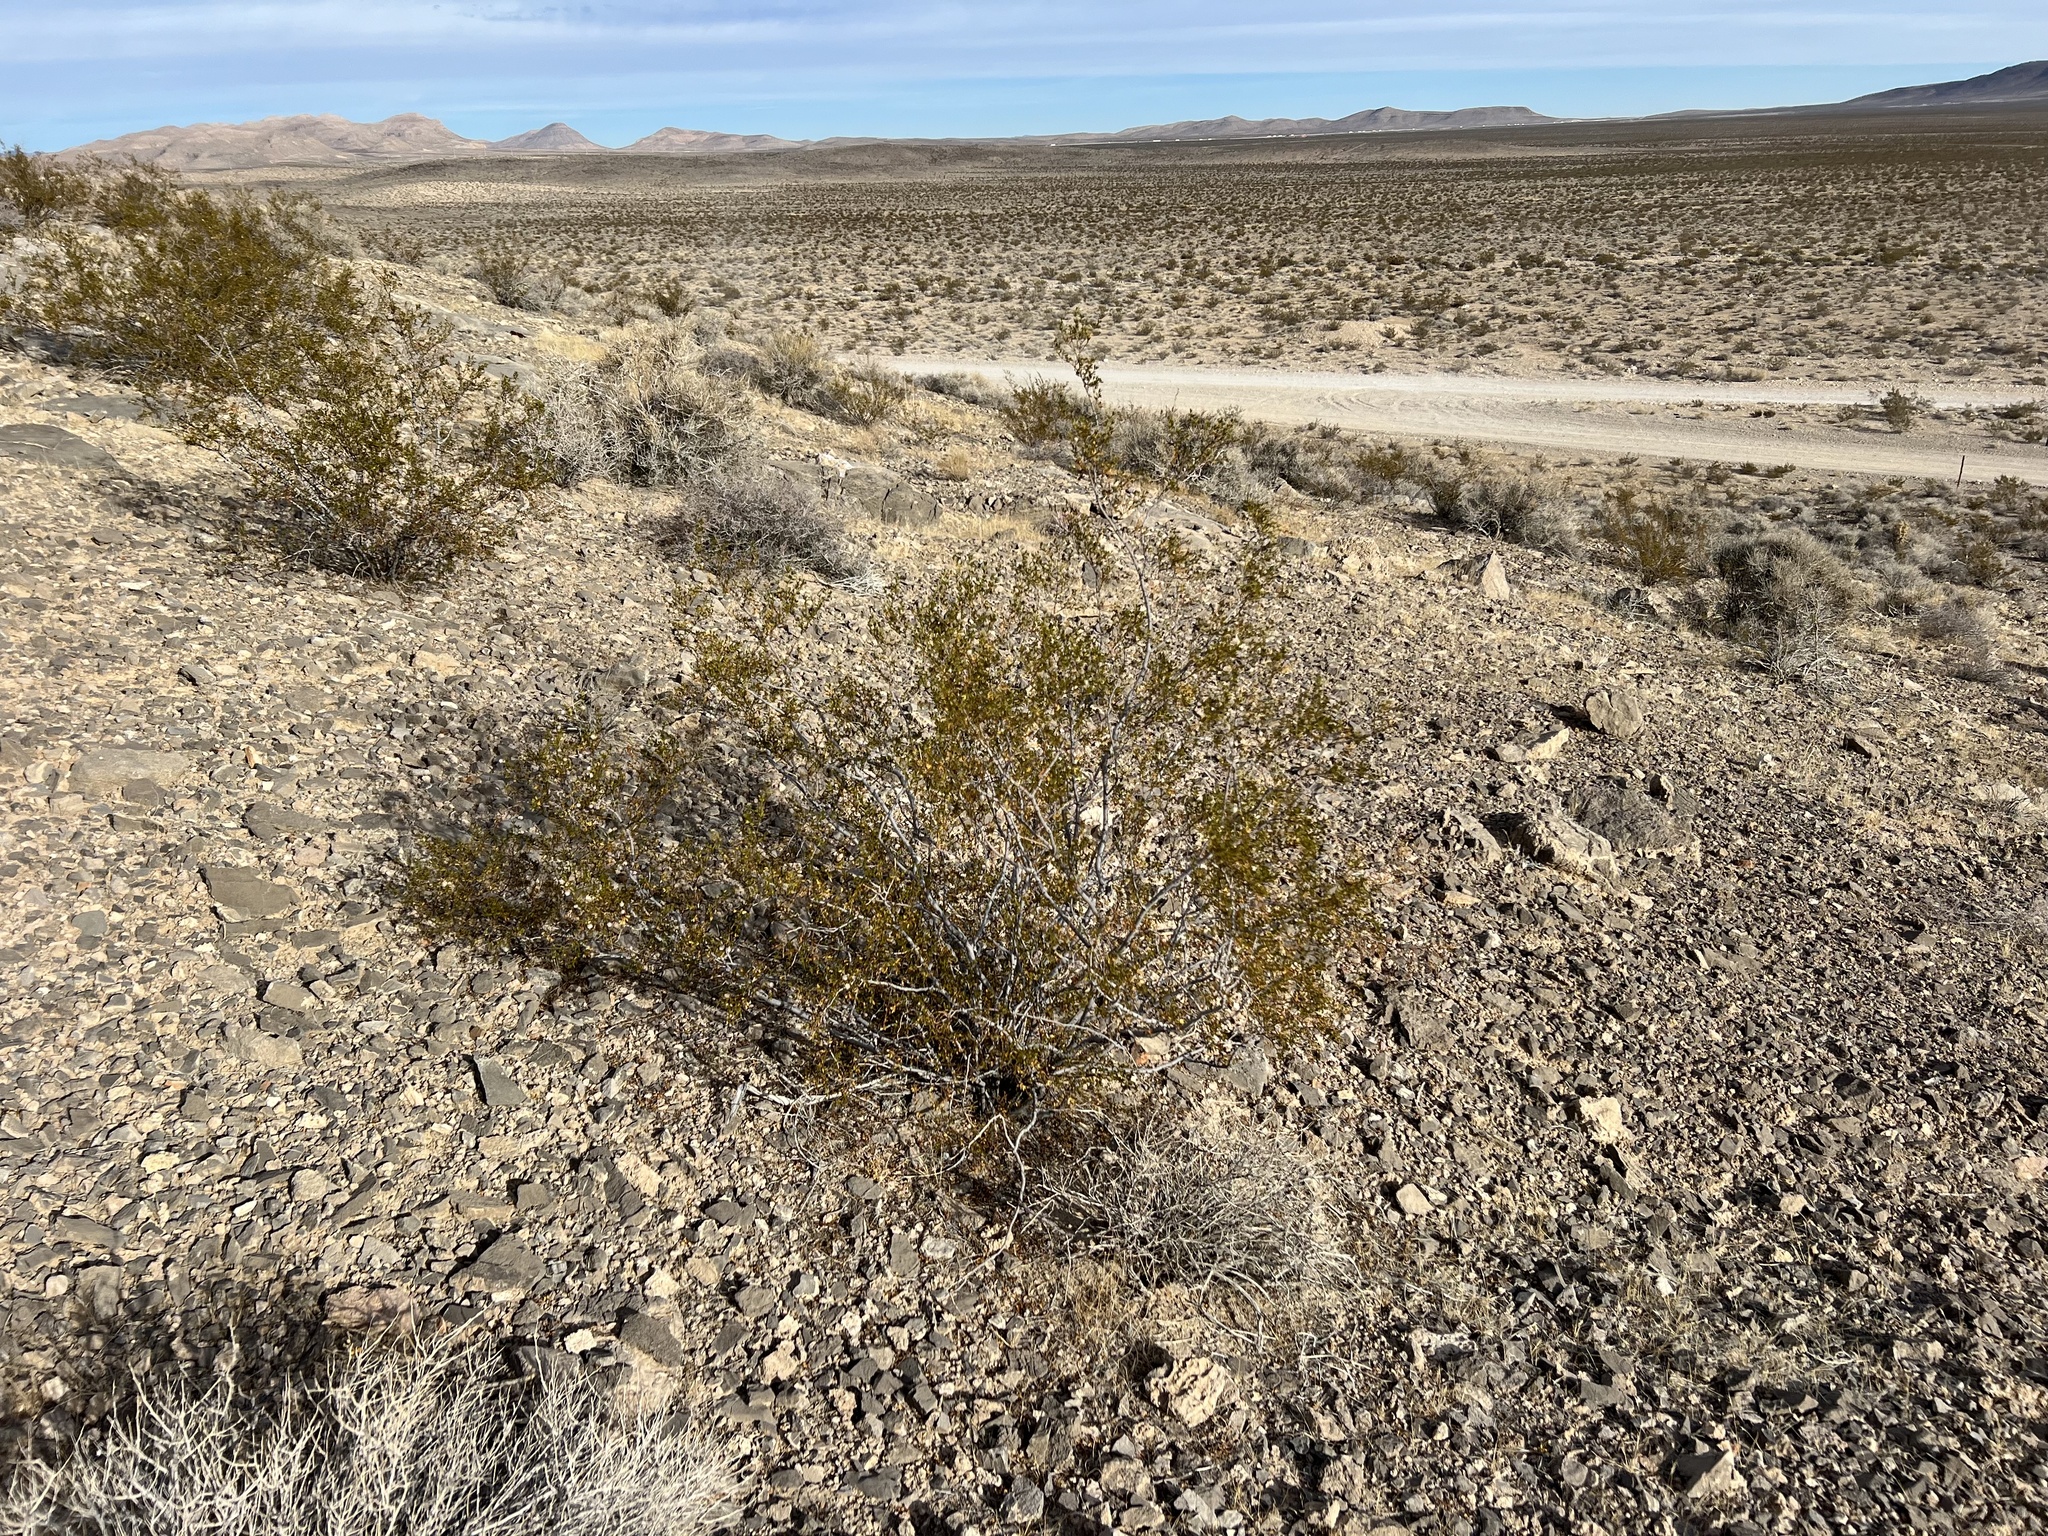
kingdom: Plantae
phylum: Tracheophyta
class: Magnoliopsida
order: Zygophyllales
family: Zygophyllaceae
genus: Larrea
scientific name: Larrea tridentata
